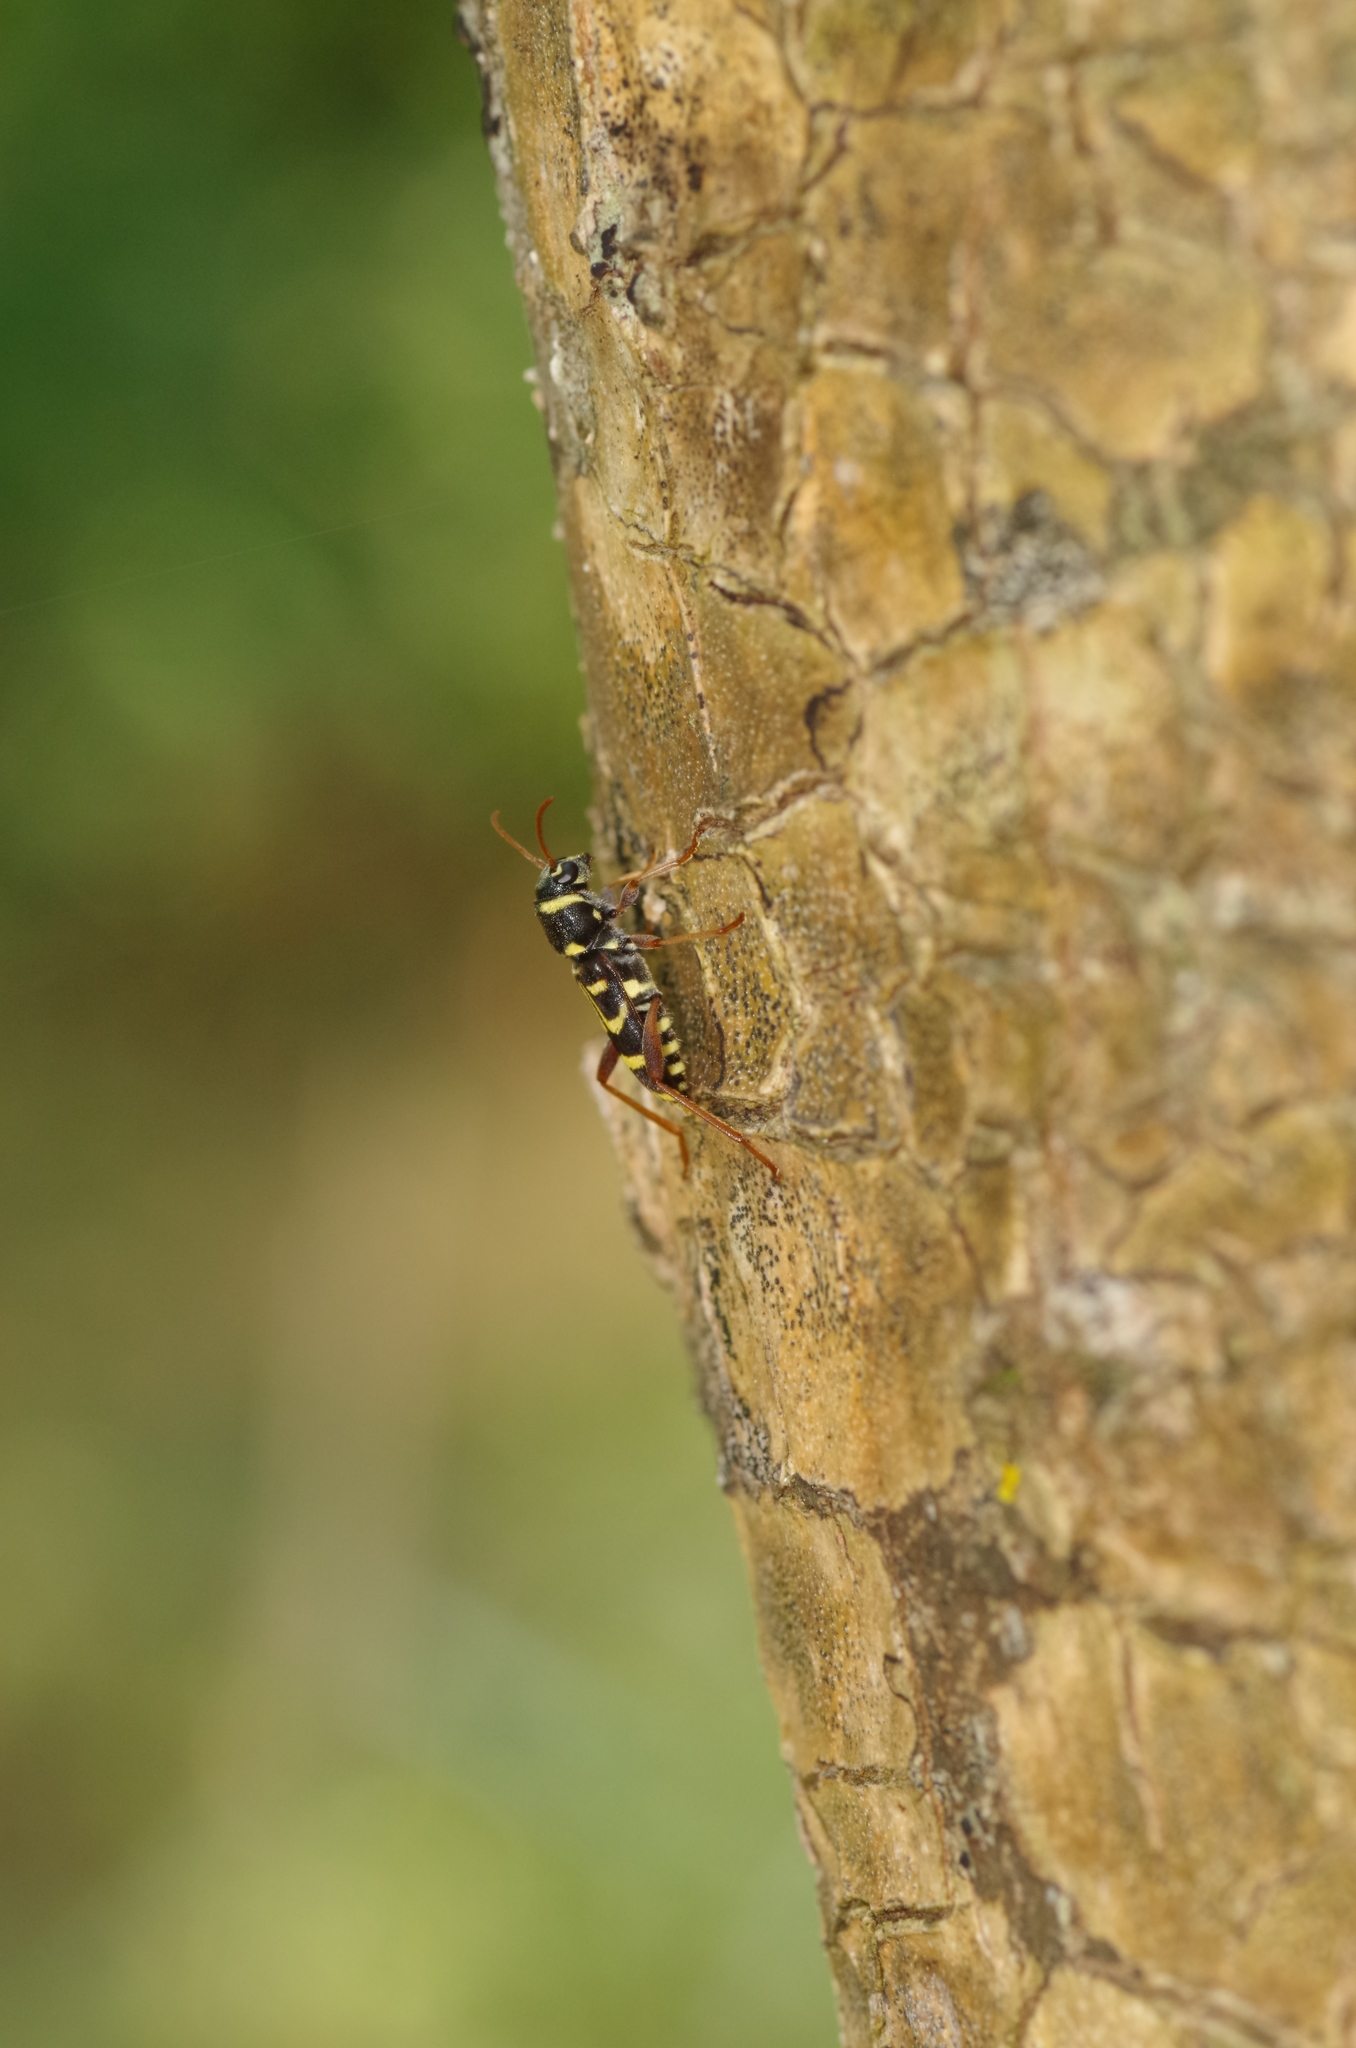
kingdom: Animalia
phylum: Arthropoda
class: Insecta
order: Coleoptera
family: Cerambycidae
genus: Xylotrechus
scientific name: Xylotrechus arvicola
